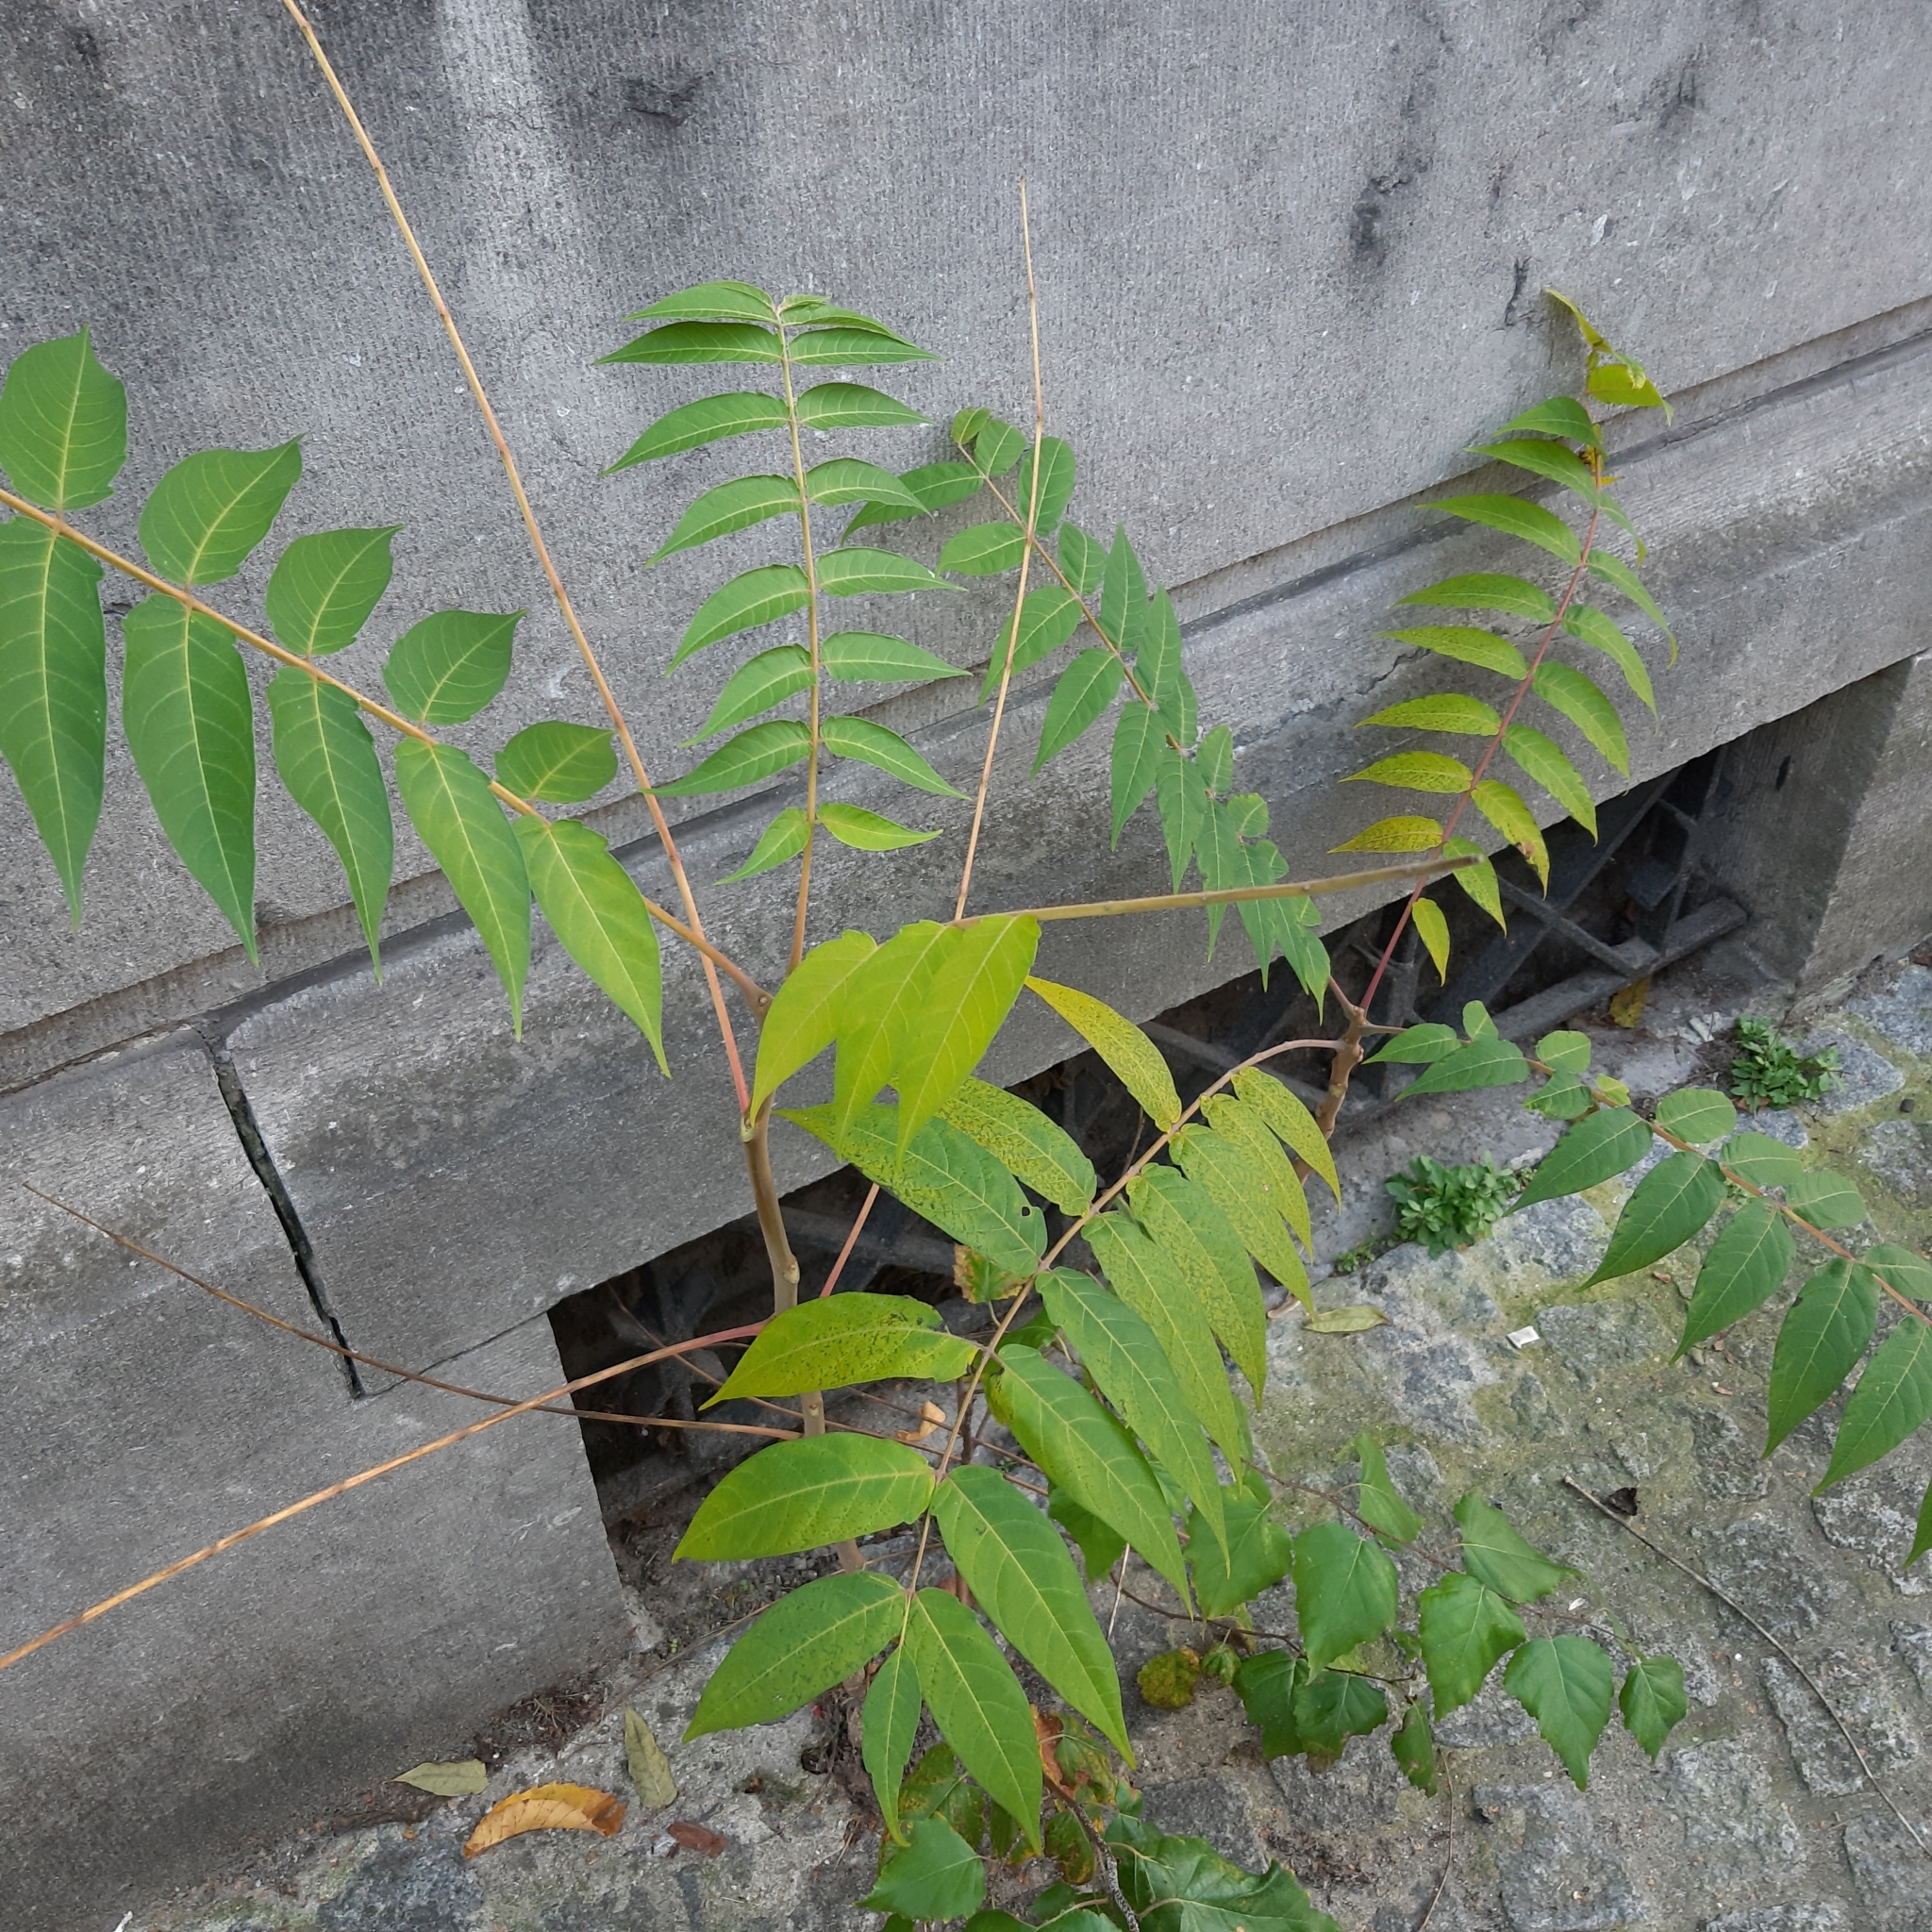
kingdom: Plantae
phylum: Tracheophyta
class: Magnoliopsida
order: Sapindales
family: Simaroubaceae
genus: Ailanthus
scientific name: Ailanthus altissima
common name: Tree-of-heaven
